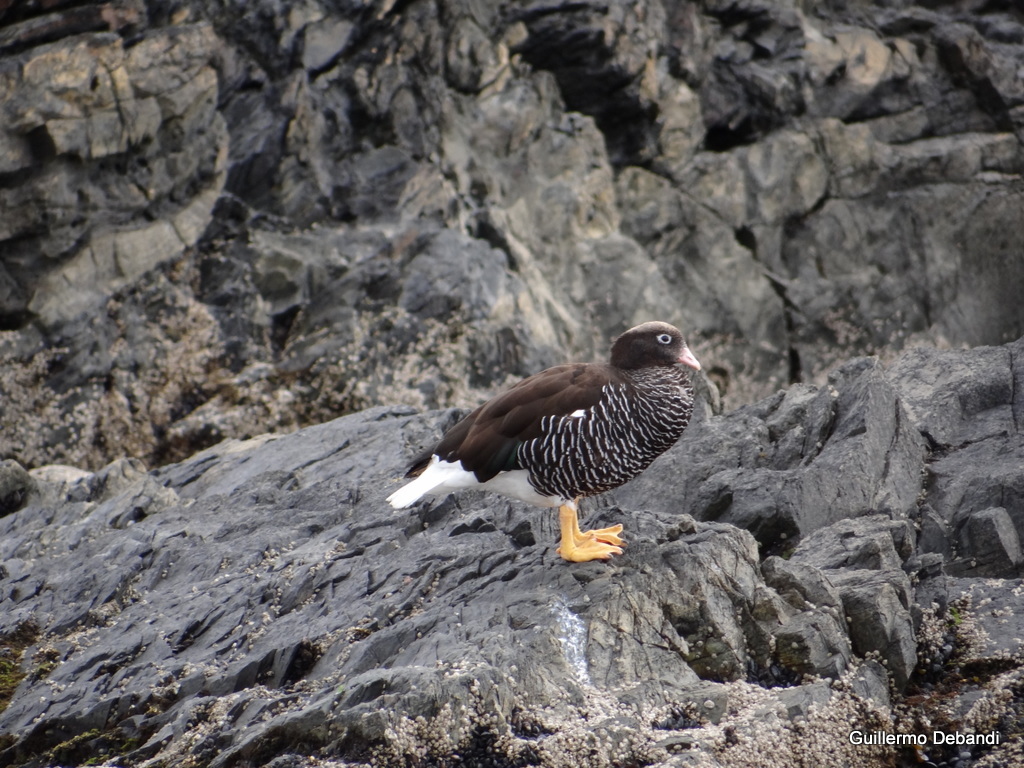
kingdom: Animalia
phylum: Chordata
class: Aves
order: Anseriformes
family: Anatidae
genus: Chloephaga
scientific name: Chloephaga hybrida
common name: Kelp goose
